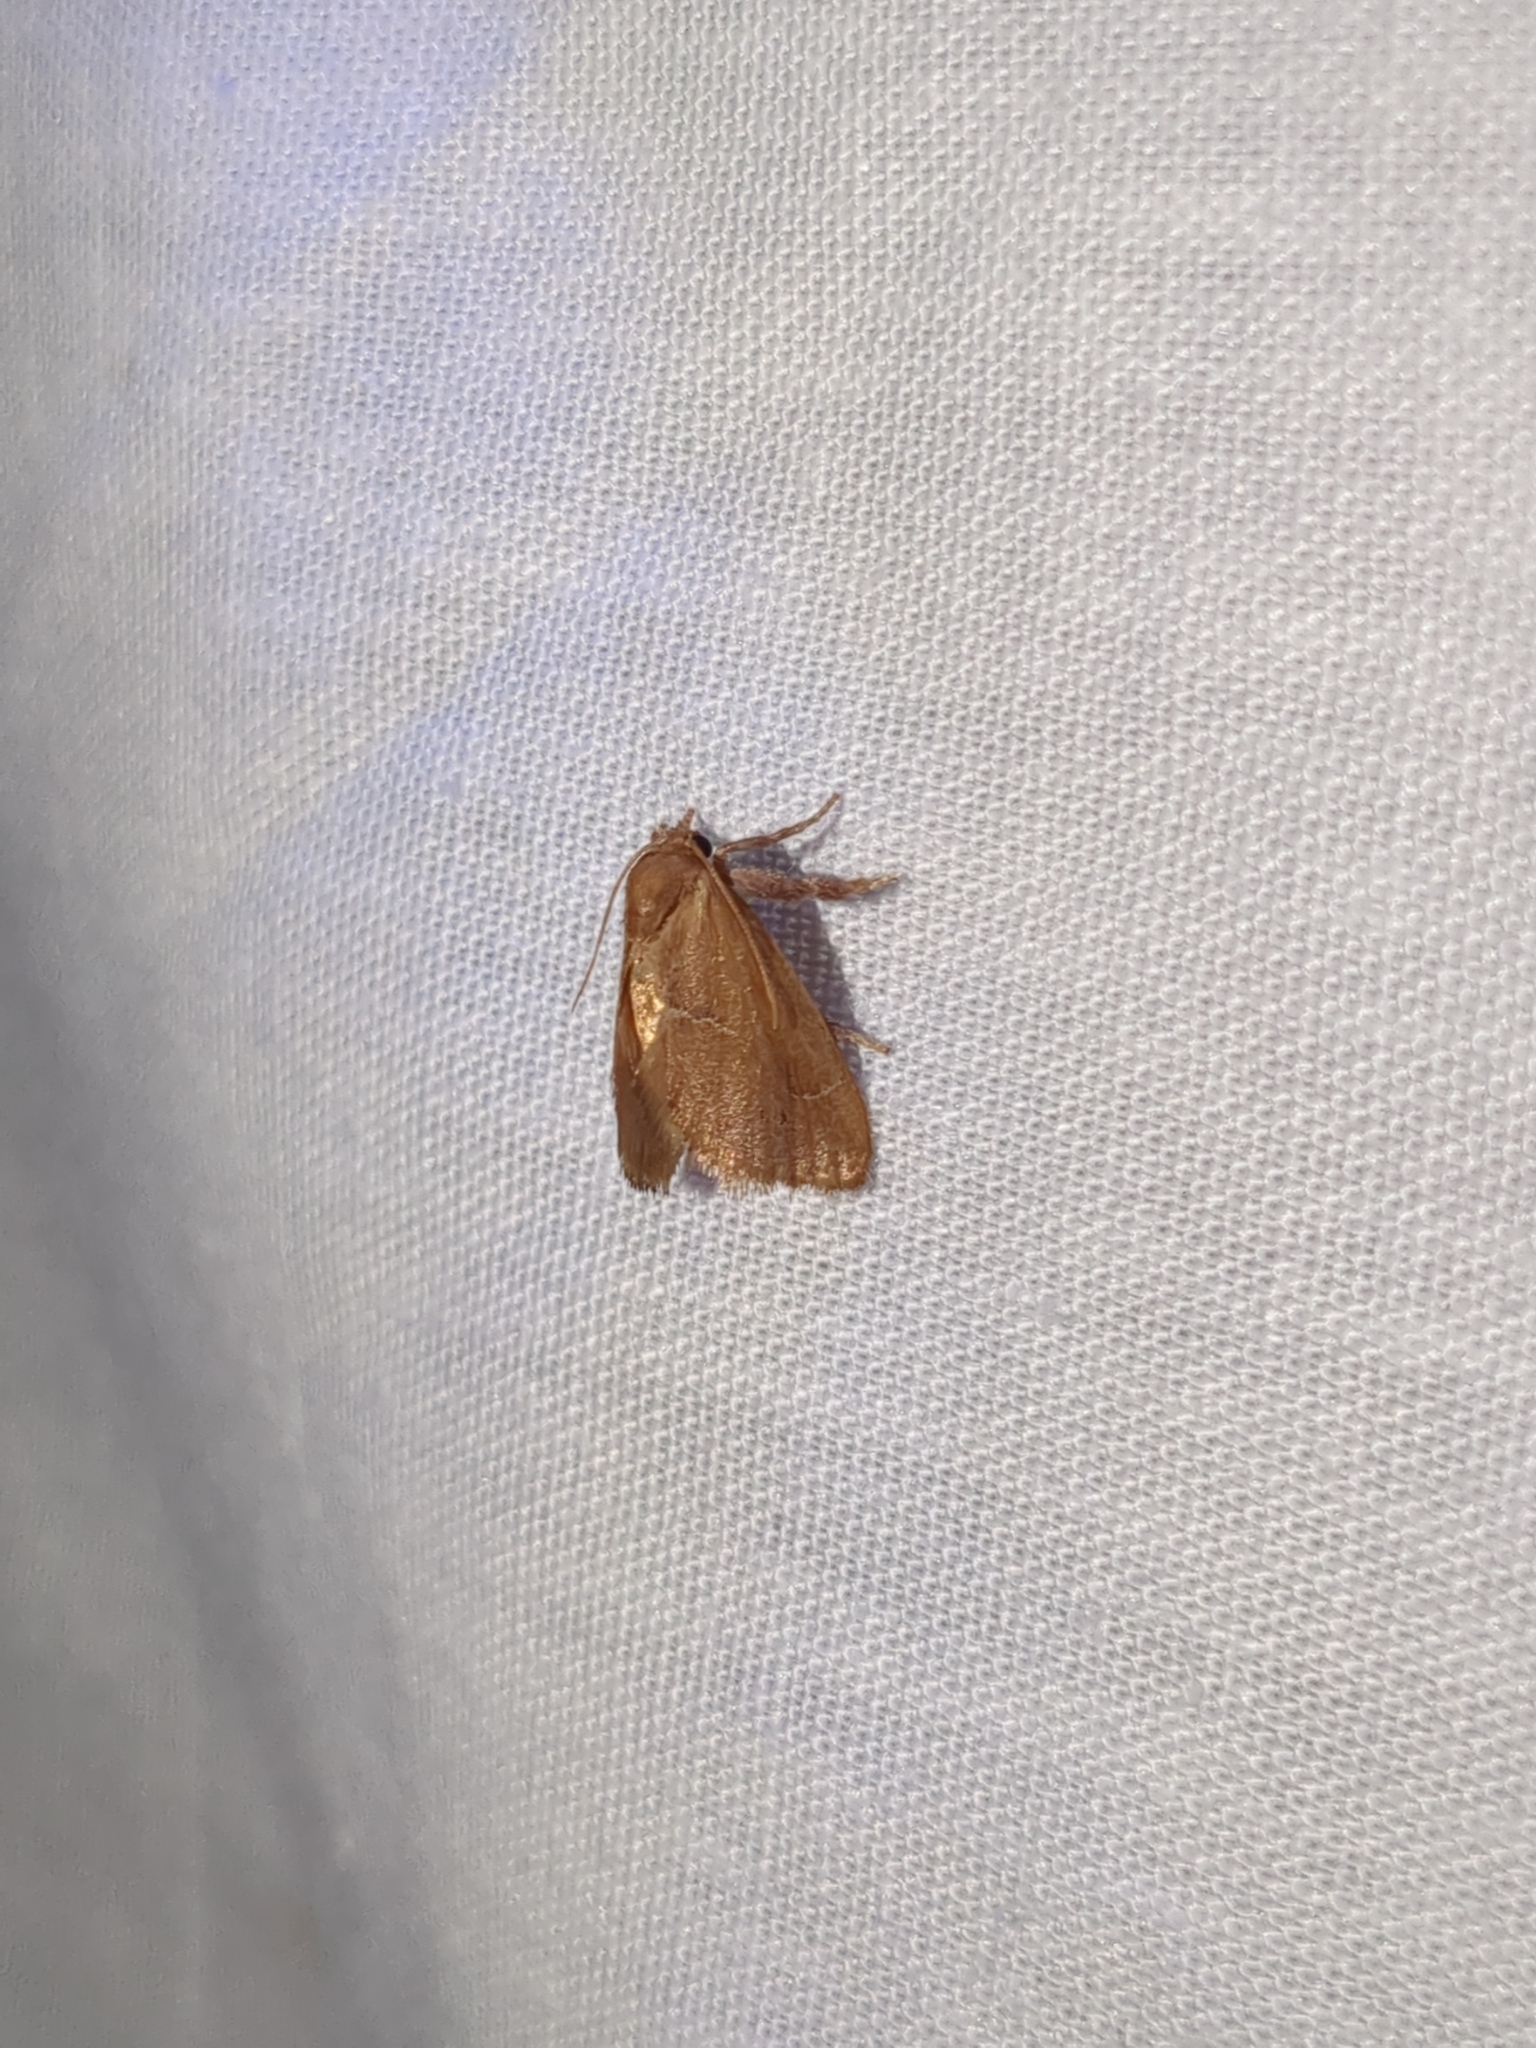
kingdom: Animalia
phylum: Arthropoda
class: Insecta
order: Lepidoptera
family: Limacodidae
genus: Adoneta
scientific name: Adoneta pygmaea
